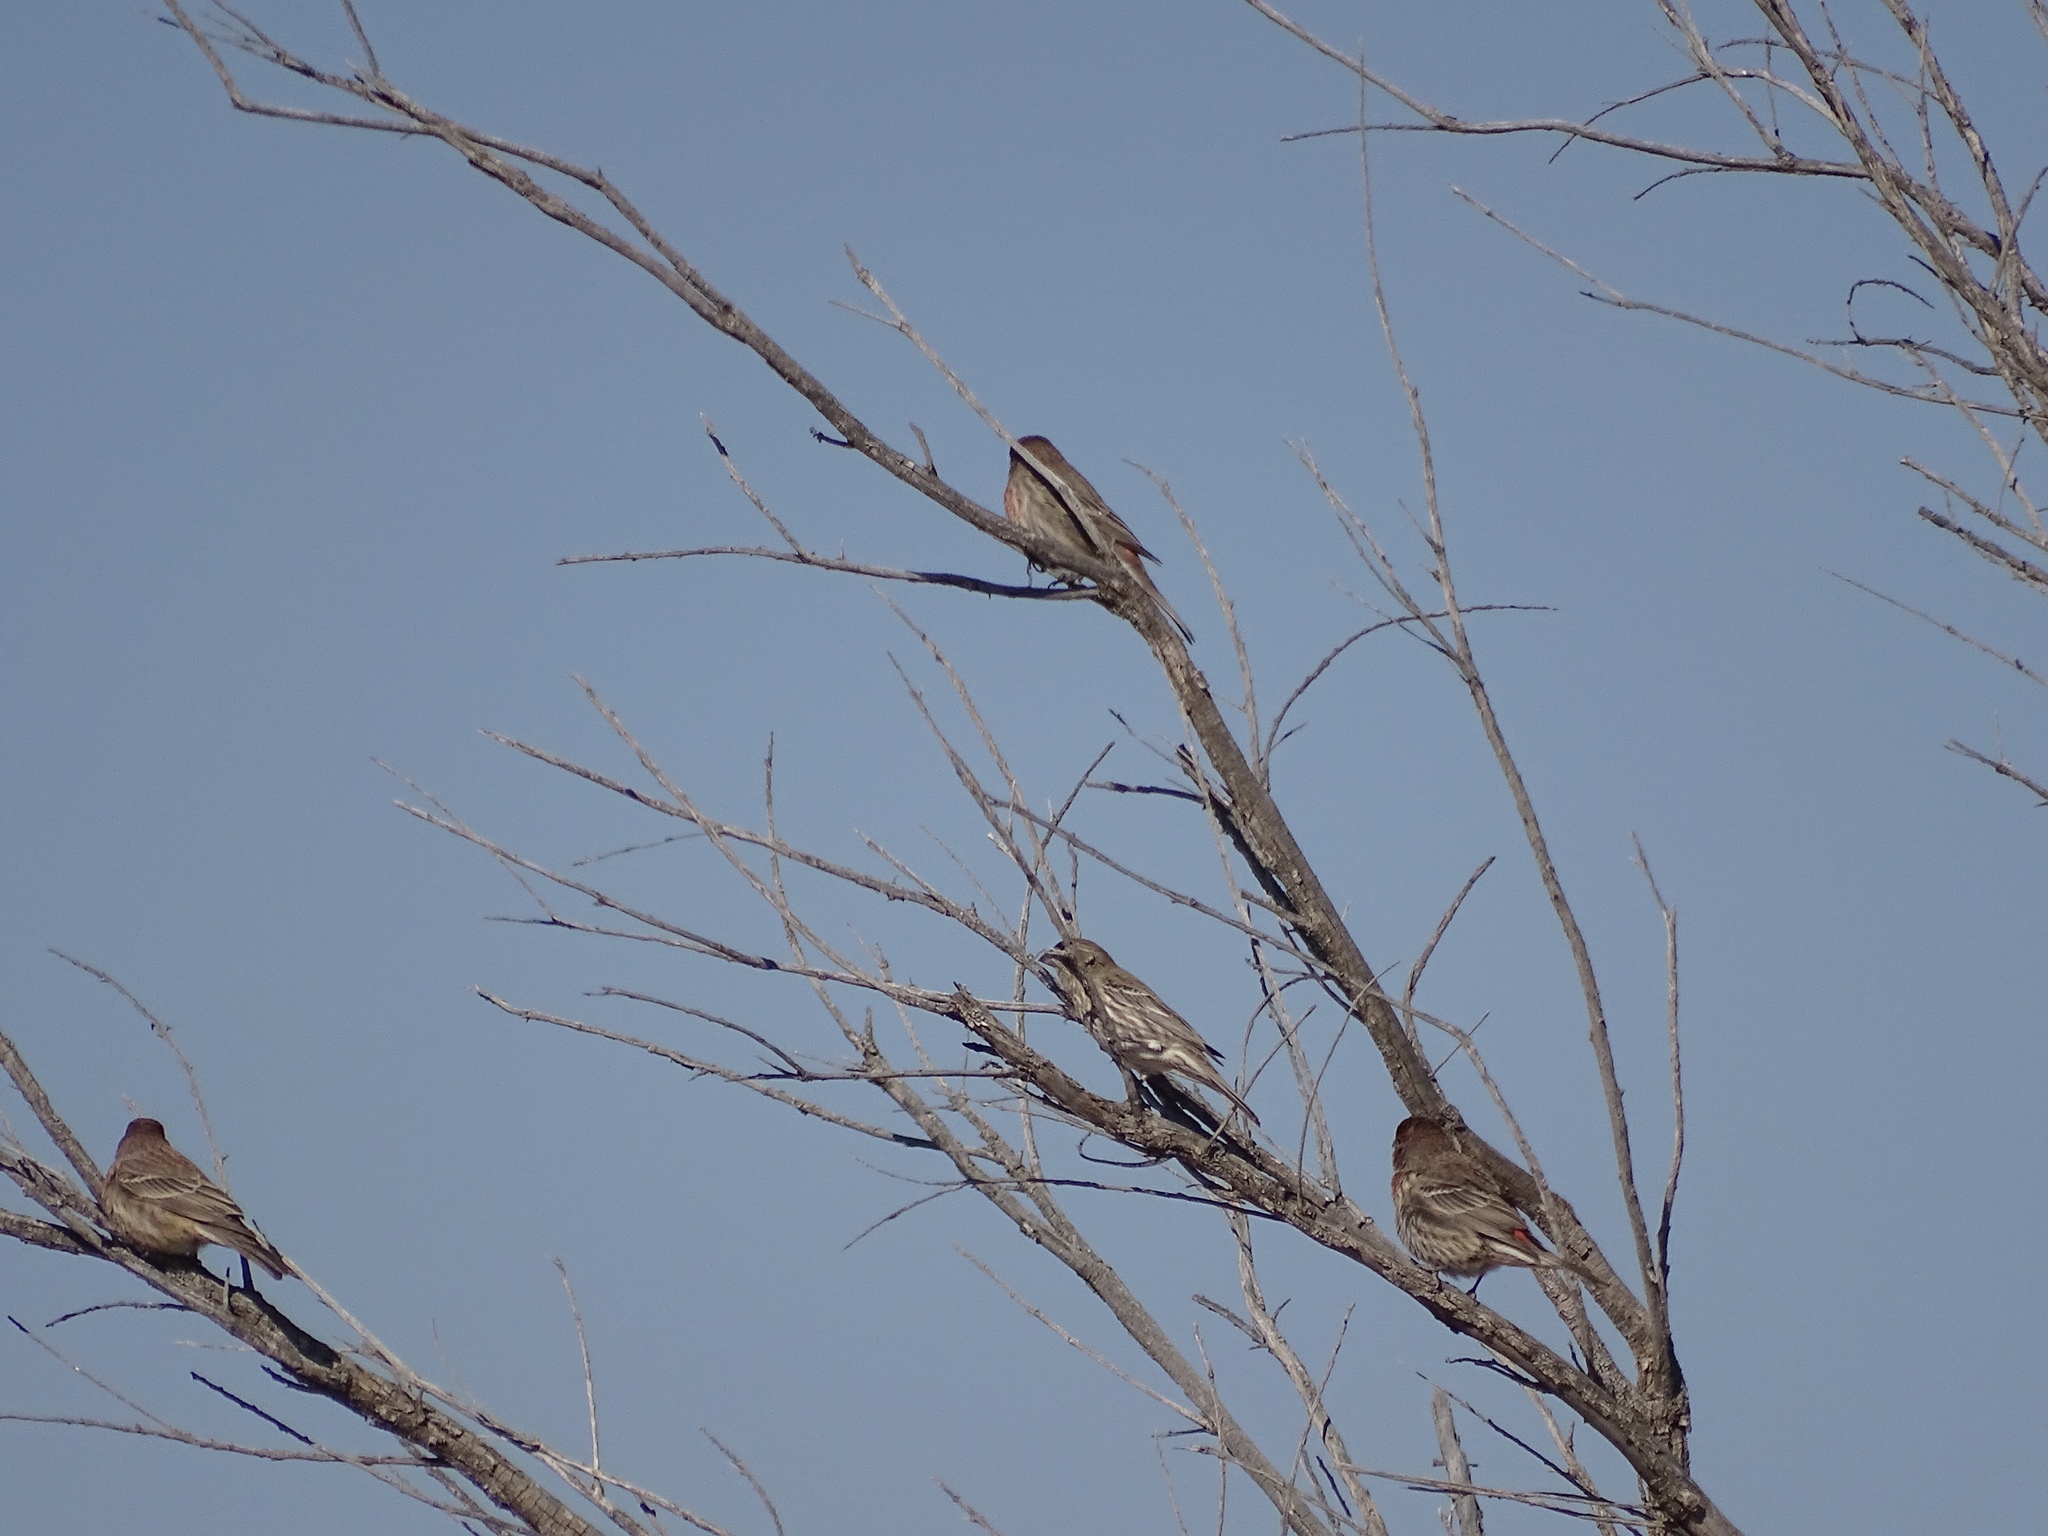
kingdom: Animalia
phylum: Chordata
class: Aves
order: Passeriformes
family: Fringillidae
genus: Haemorhous
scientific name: Haemorhous mexicanus
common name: House finch
